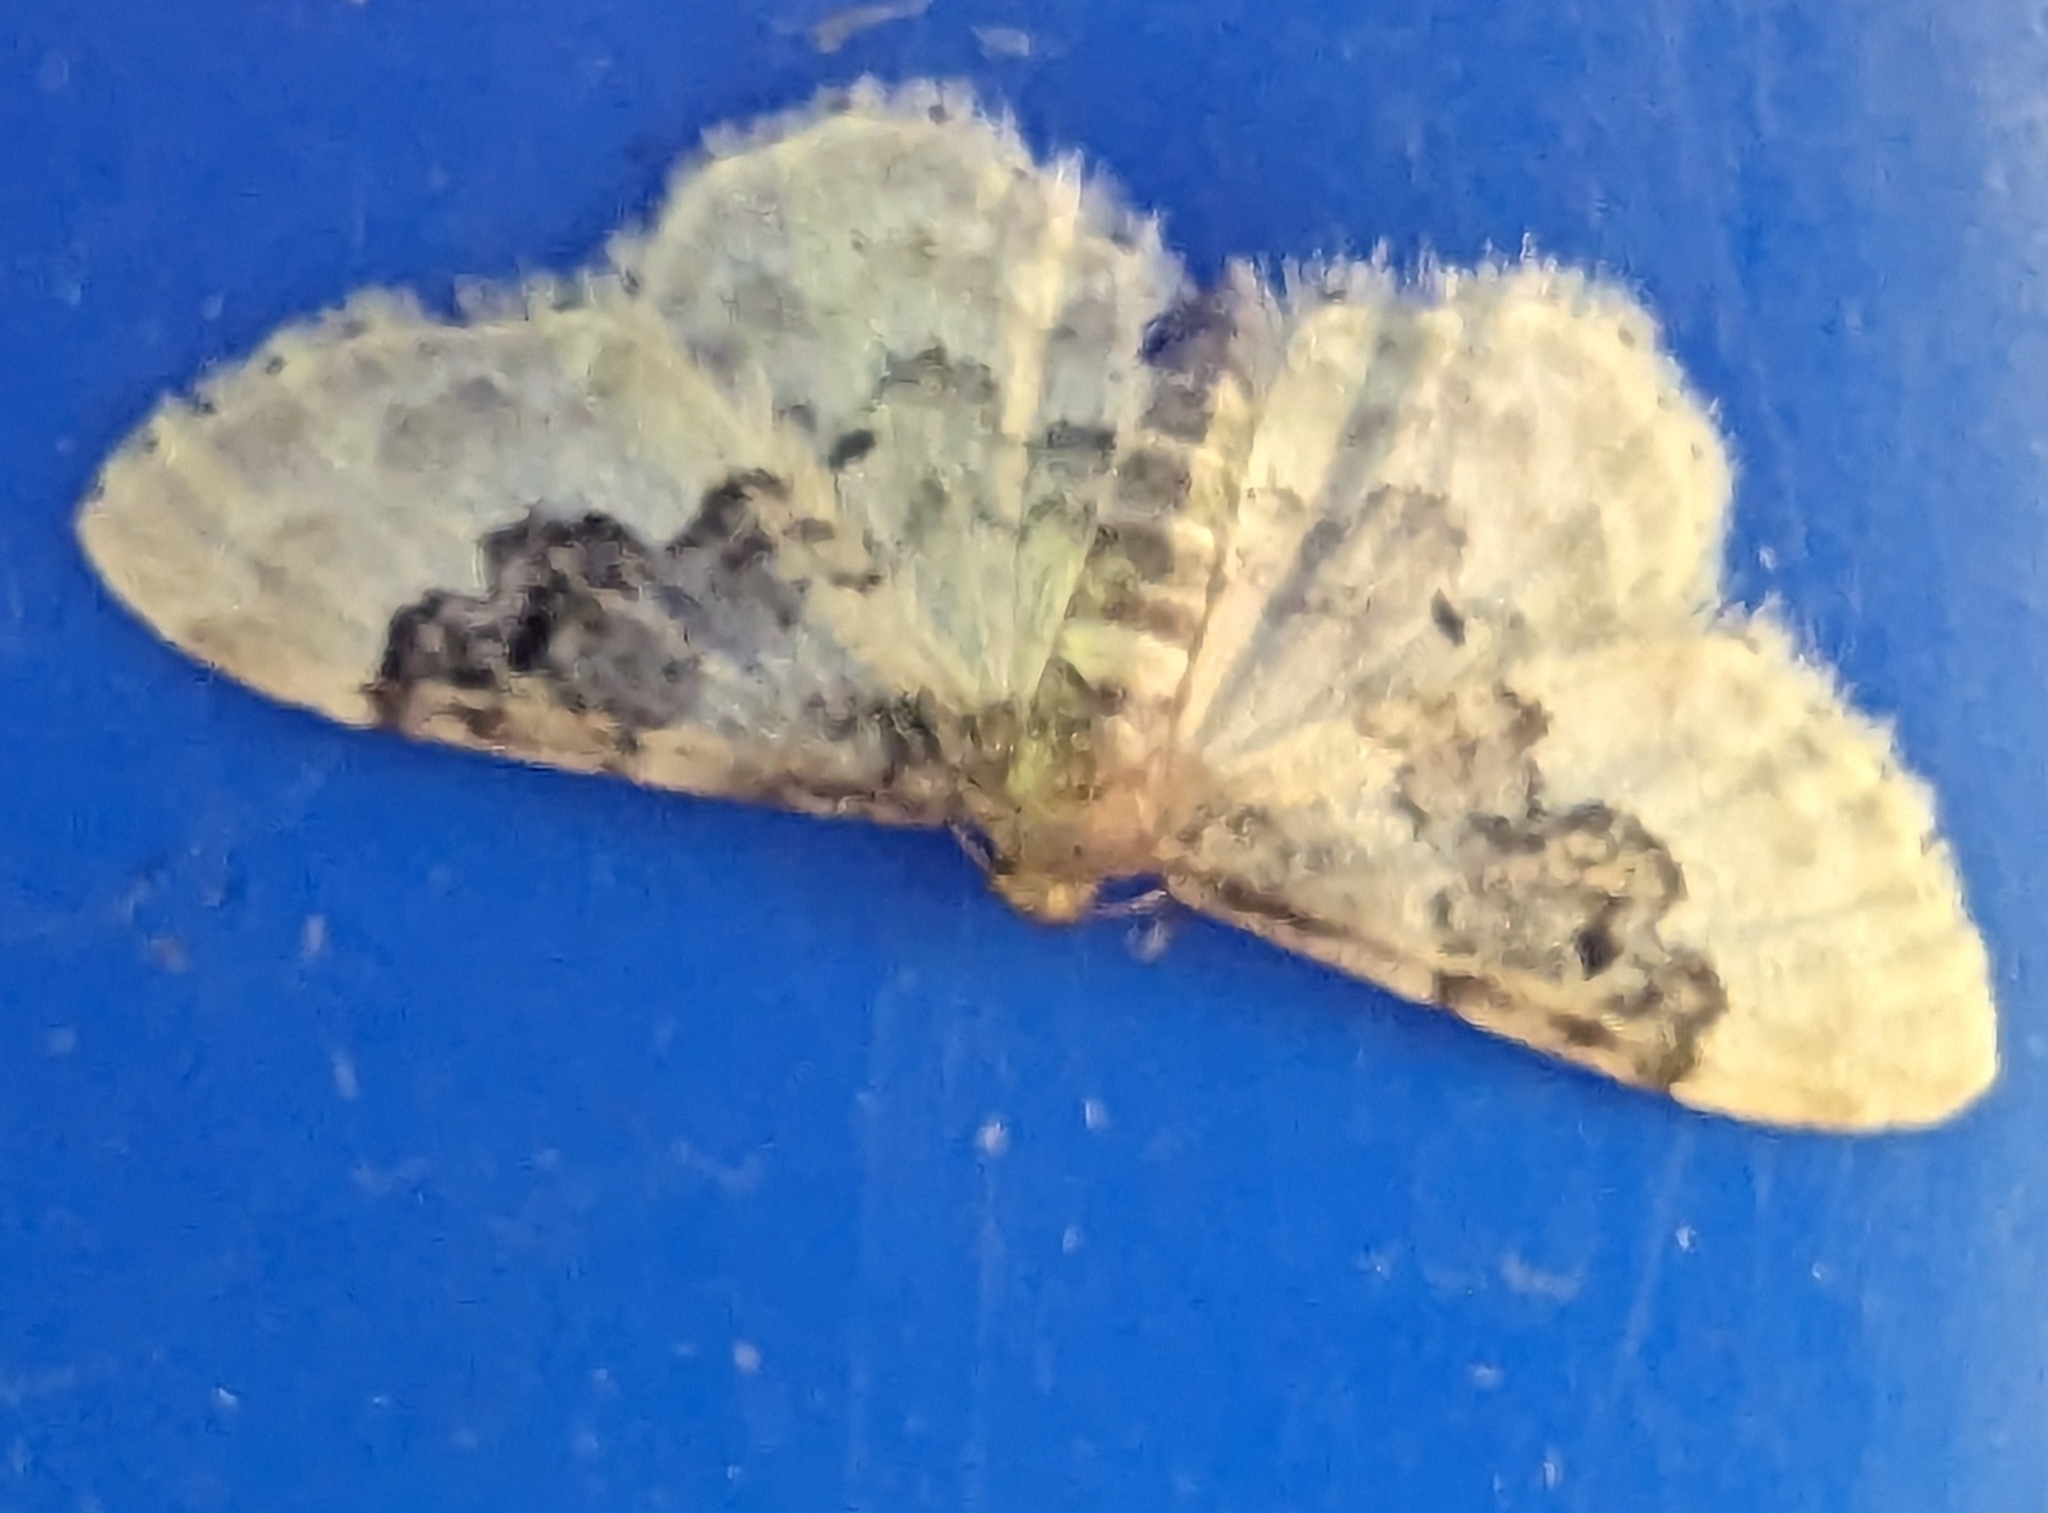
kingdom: Animalia
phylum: Arthropoda
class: Insecta
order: Lepidoptera
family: Geometridae
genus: Idaea
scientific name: Idaea rusticata
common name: Least carpet
